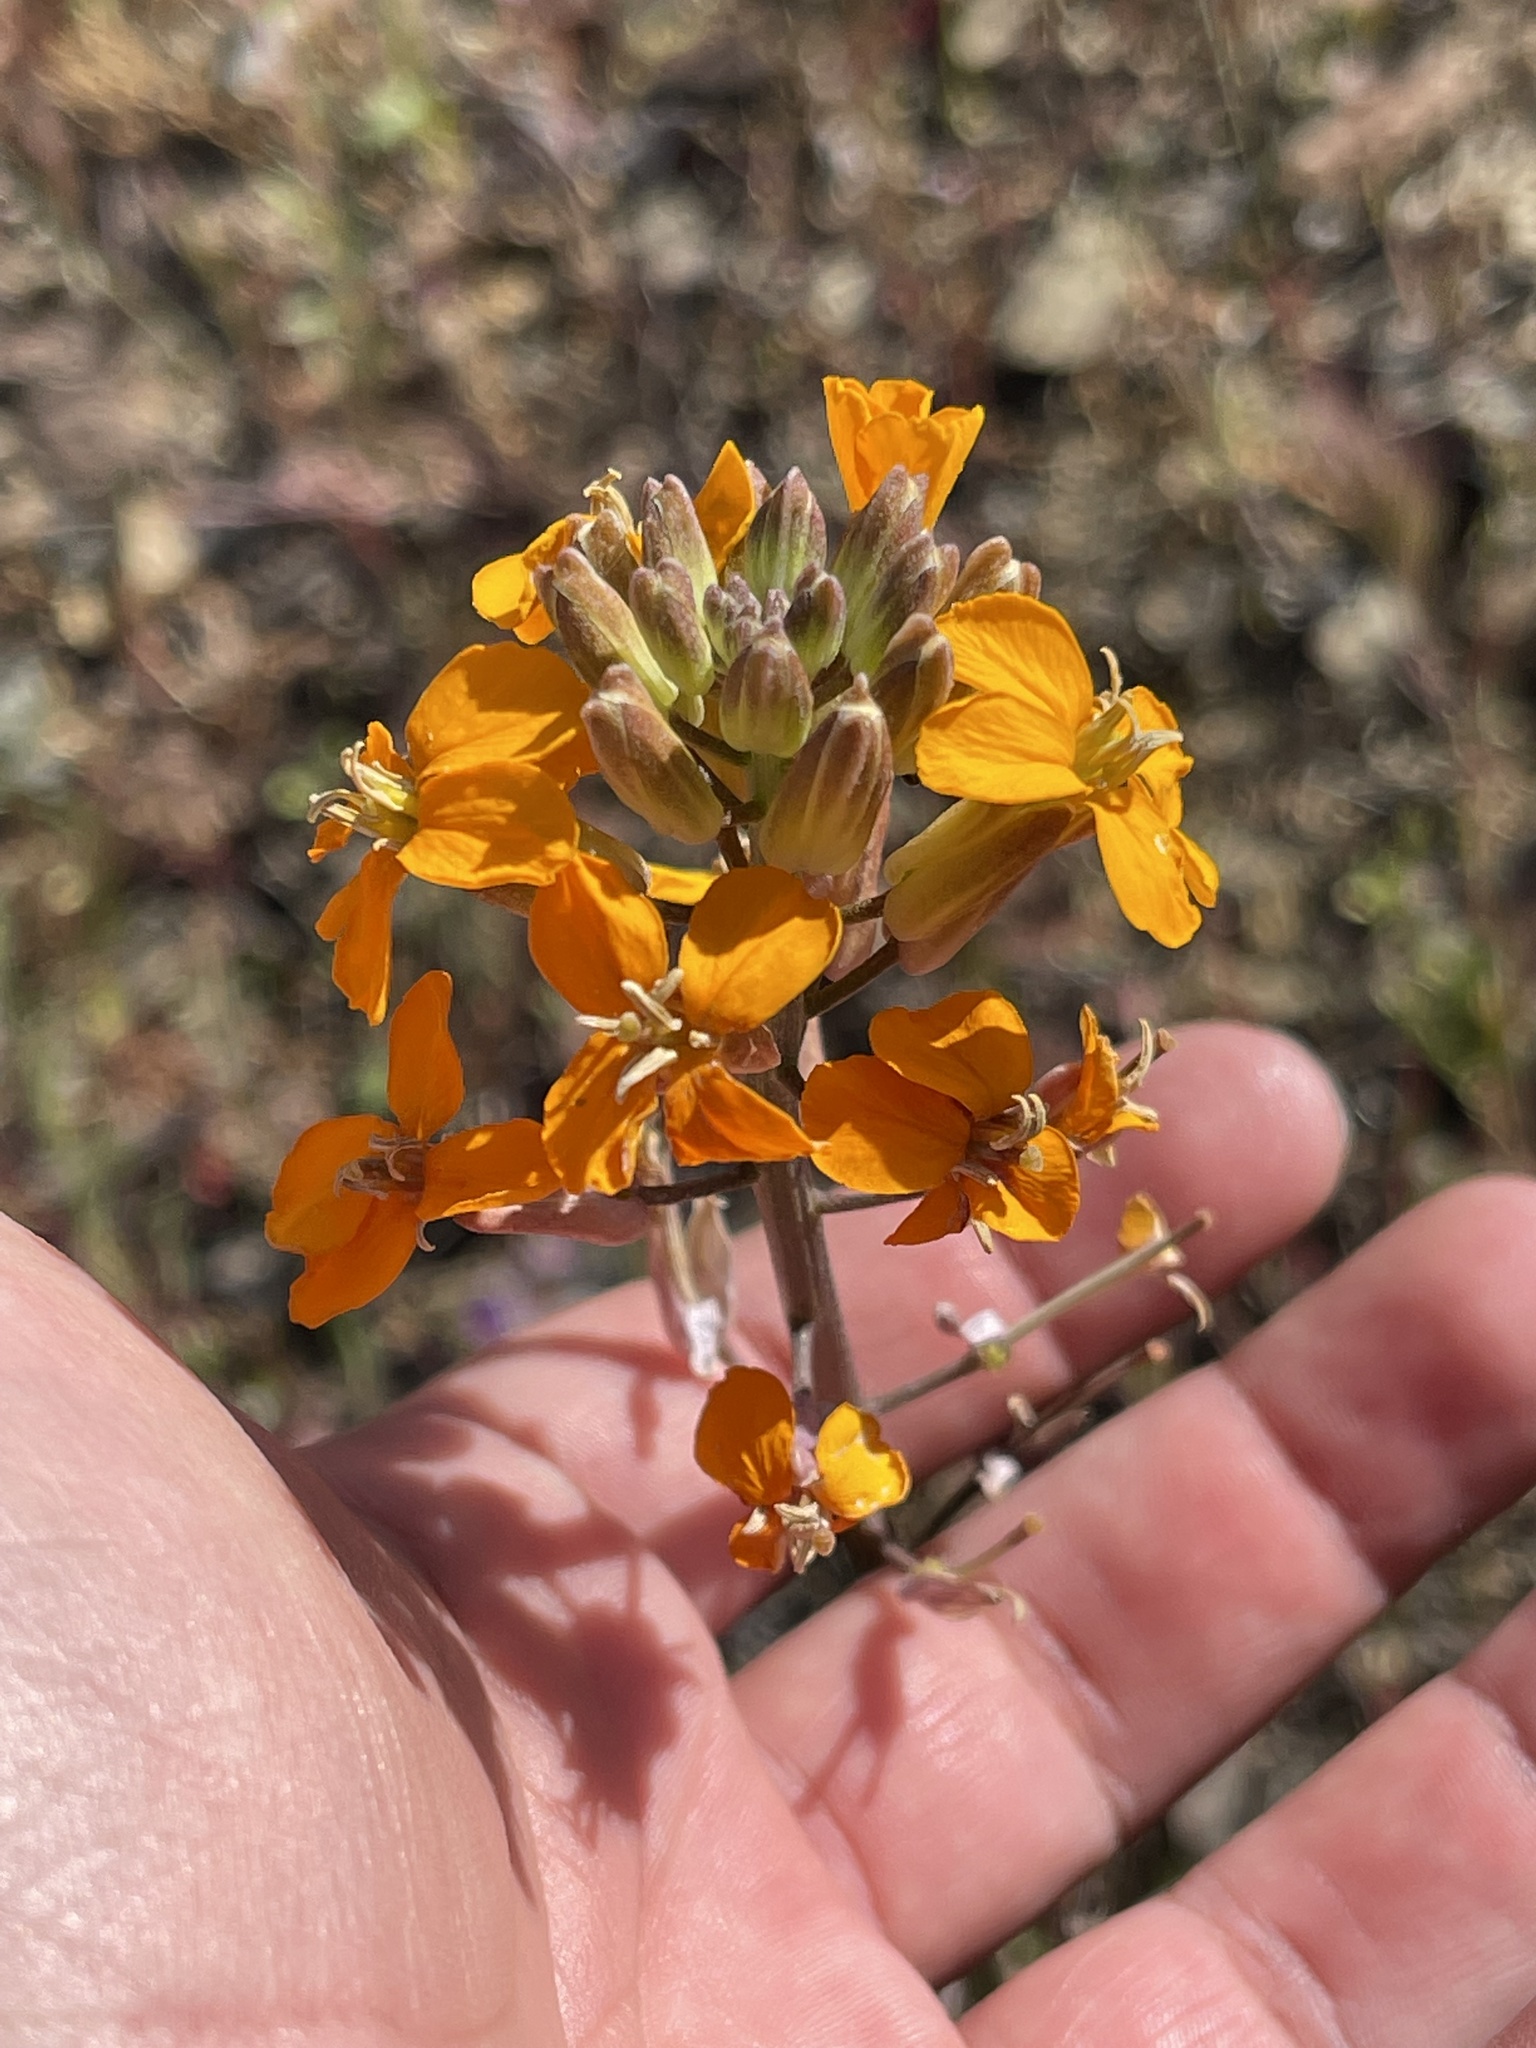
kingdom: Plantae
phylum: Tracheophyta
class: Magnoliopsida
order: Brassicales
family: Brassicaceae
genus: Erysimum
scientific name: Erysimum capitatum
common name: Western wallflower
